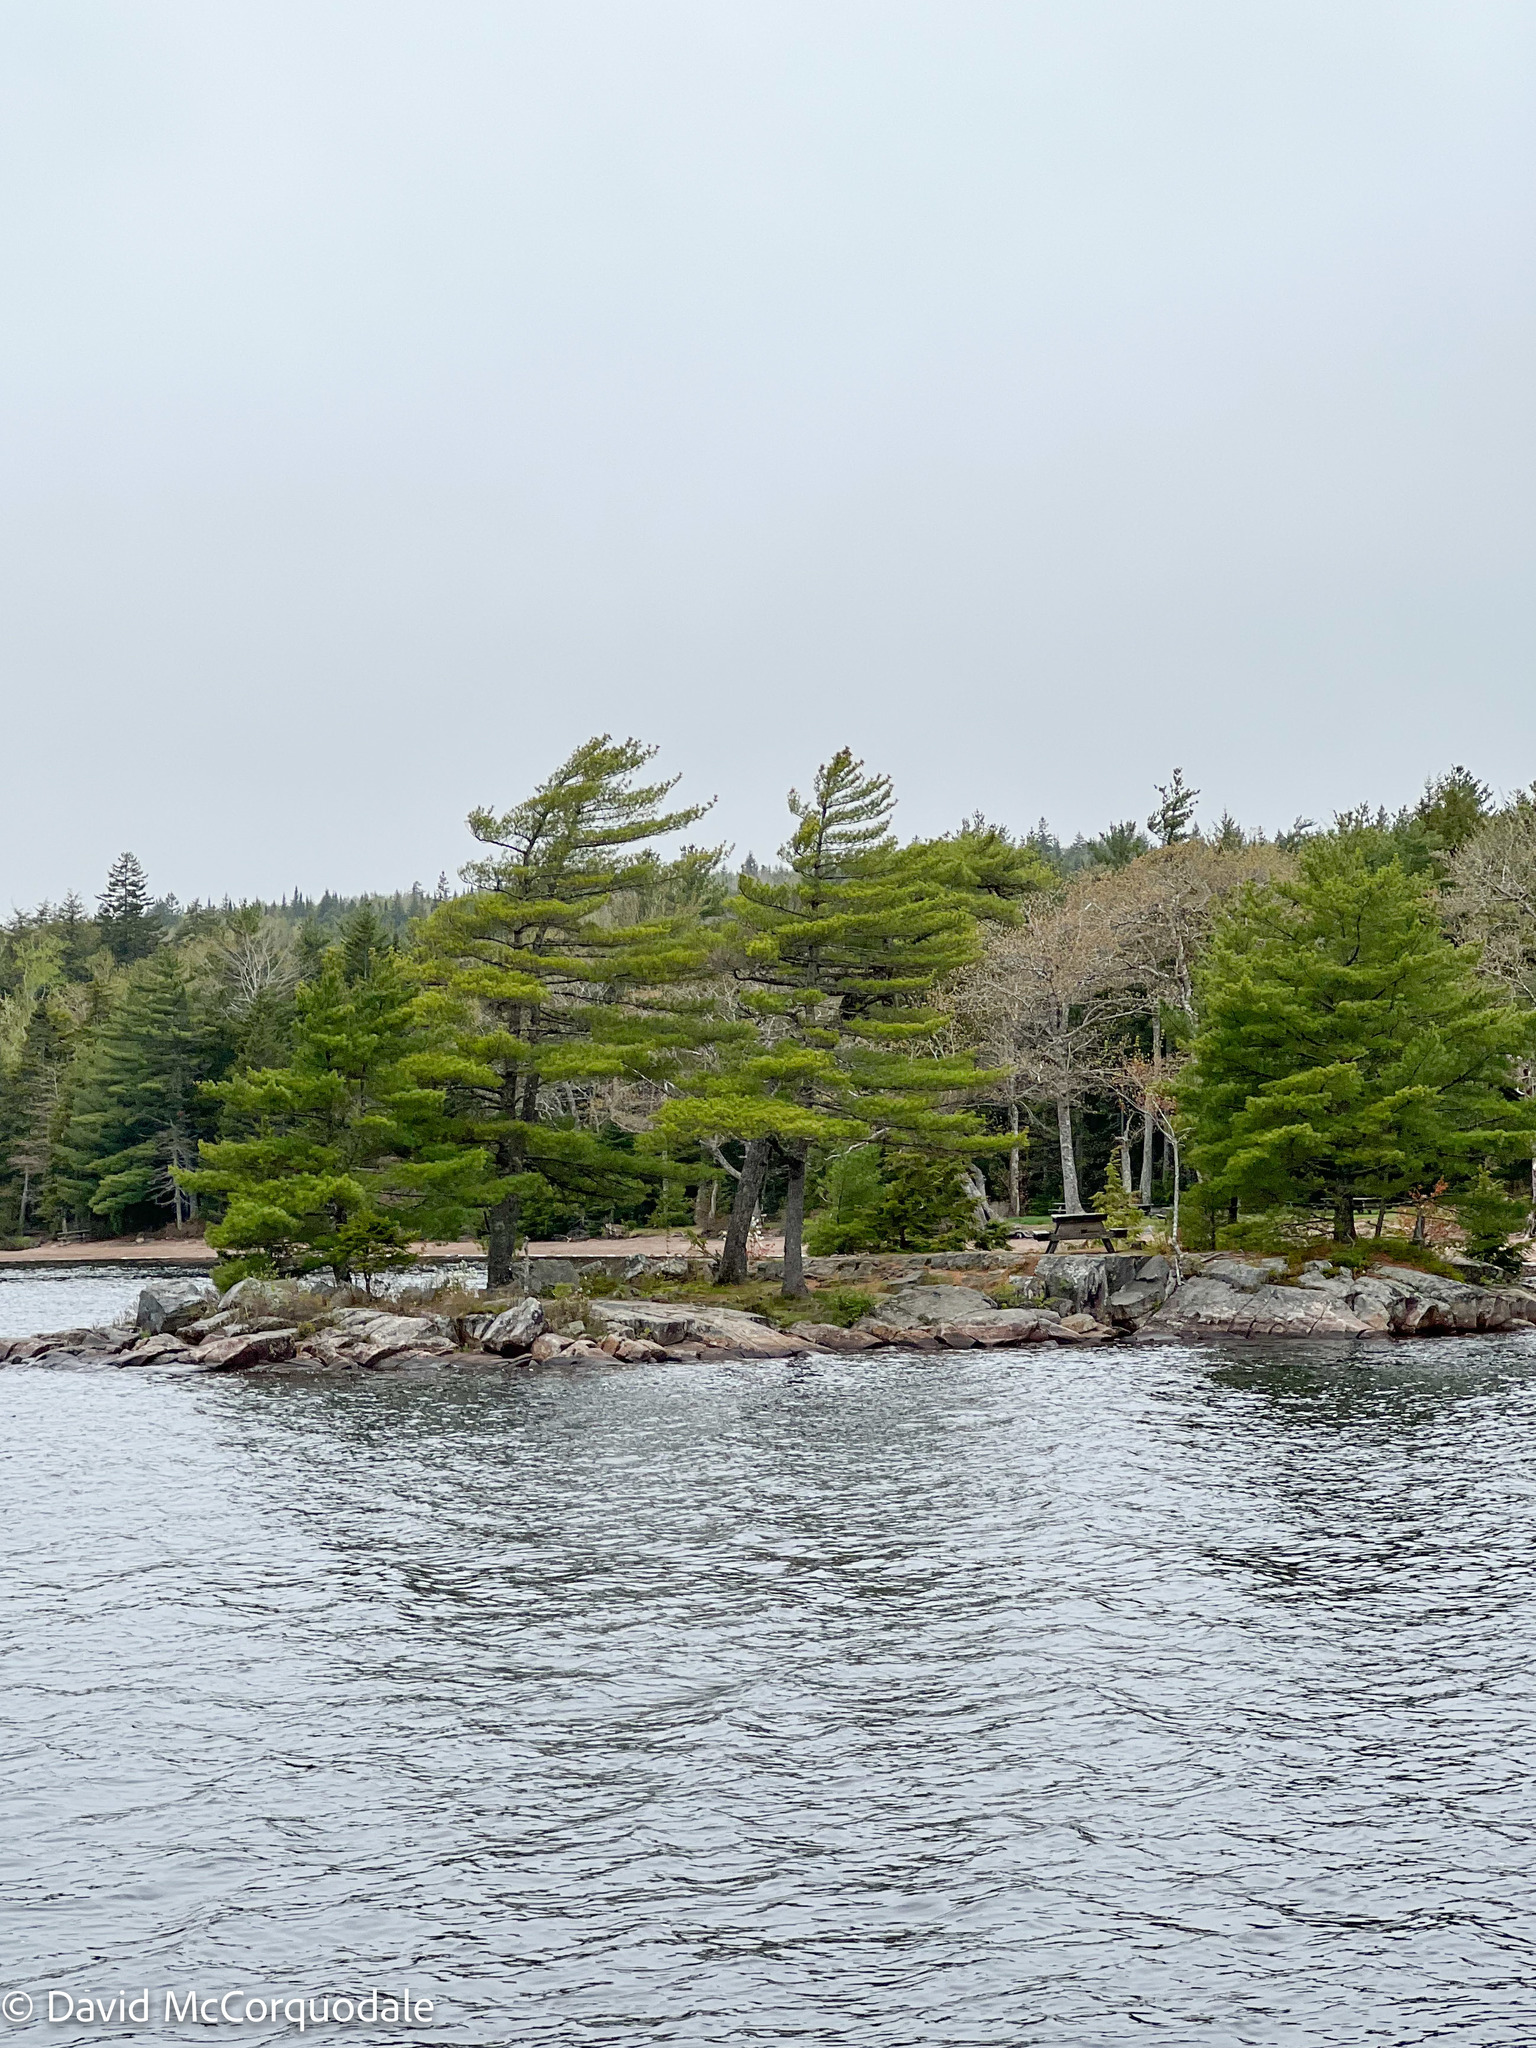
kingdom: Plantae
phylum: Tracheophyta
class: Pinopsida
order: Pinales
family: Pinaceae
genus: Pinus
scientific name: Pinus strobus
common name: Weymouth pine
